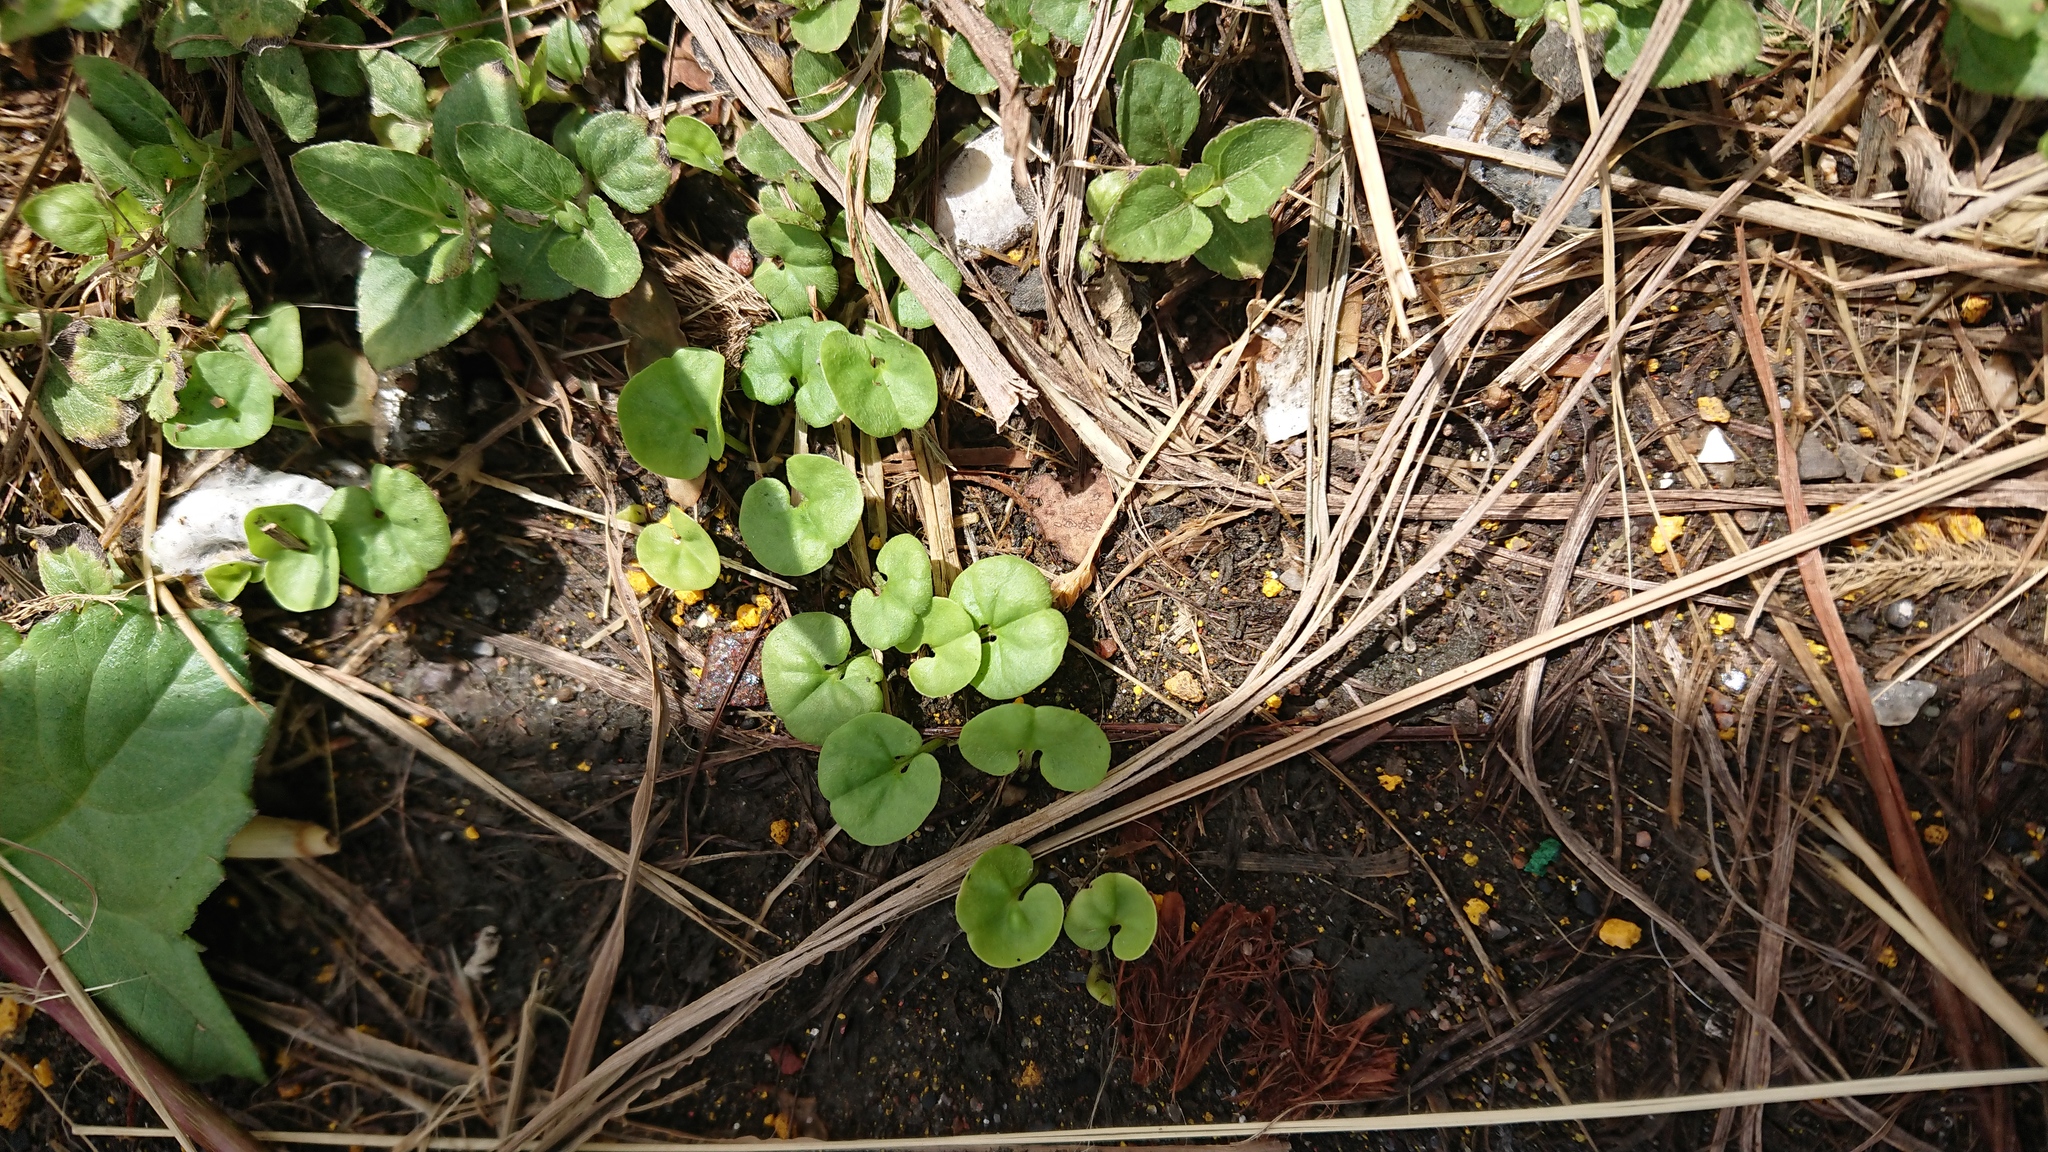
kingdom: Plantae
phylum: Tracheophyta
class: Magnoliopsida
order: Solanales
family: Convolvulaceae
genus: Dichondra
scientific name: Dichondra micrantha
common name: Kidneyweed
